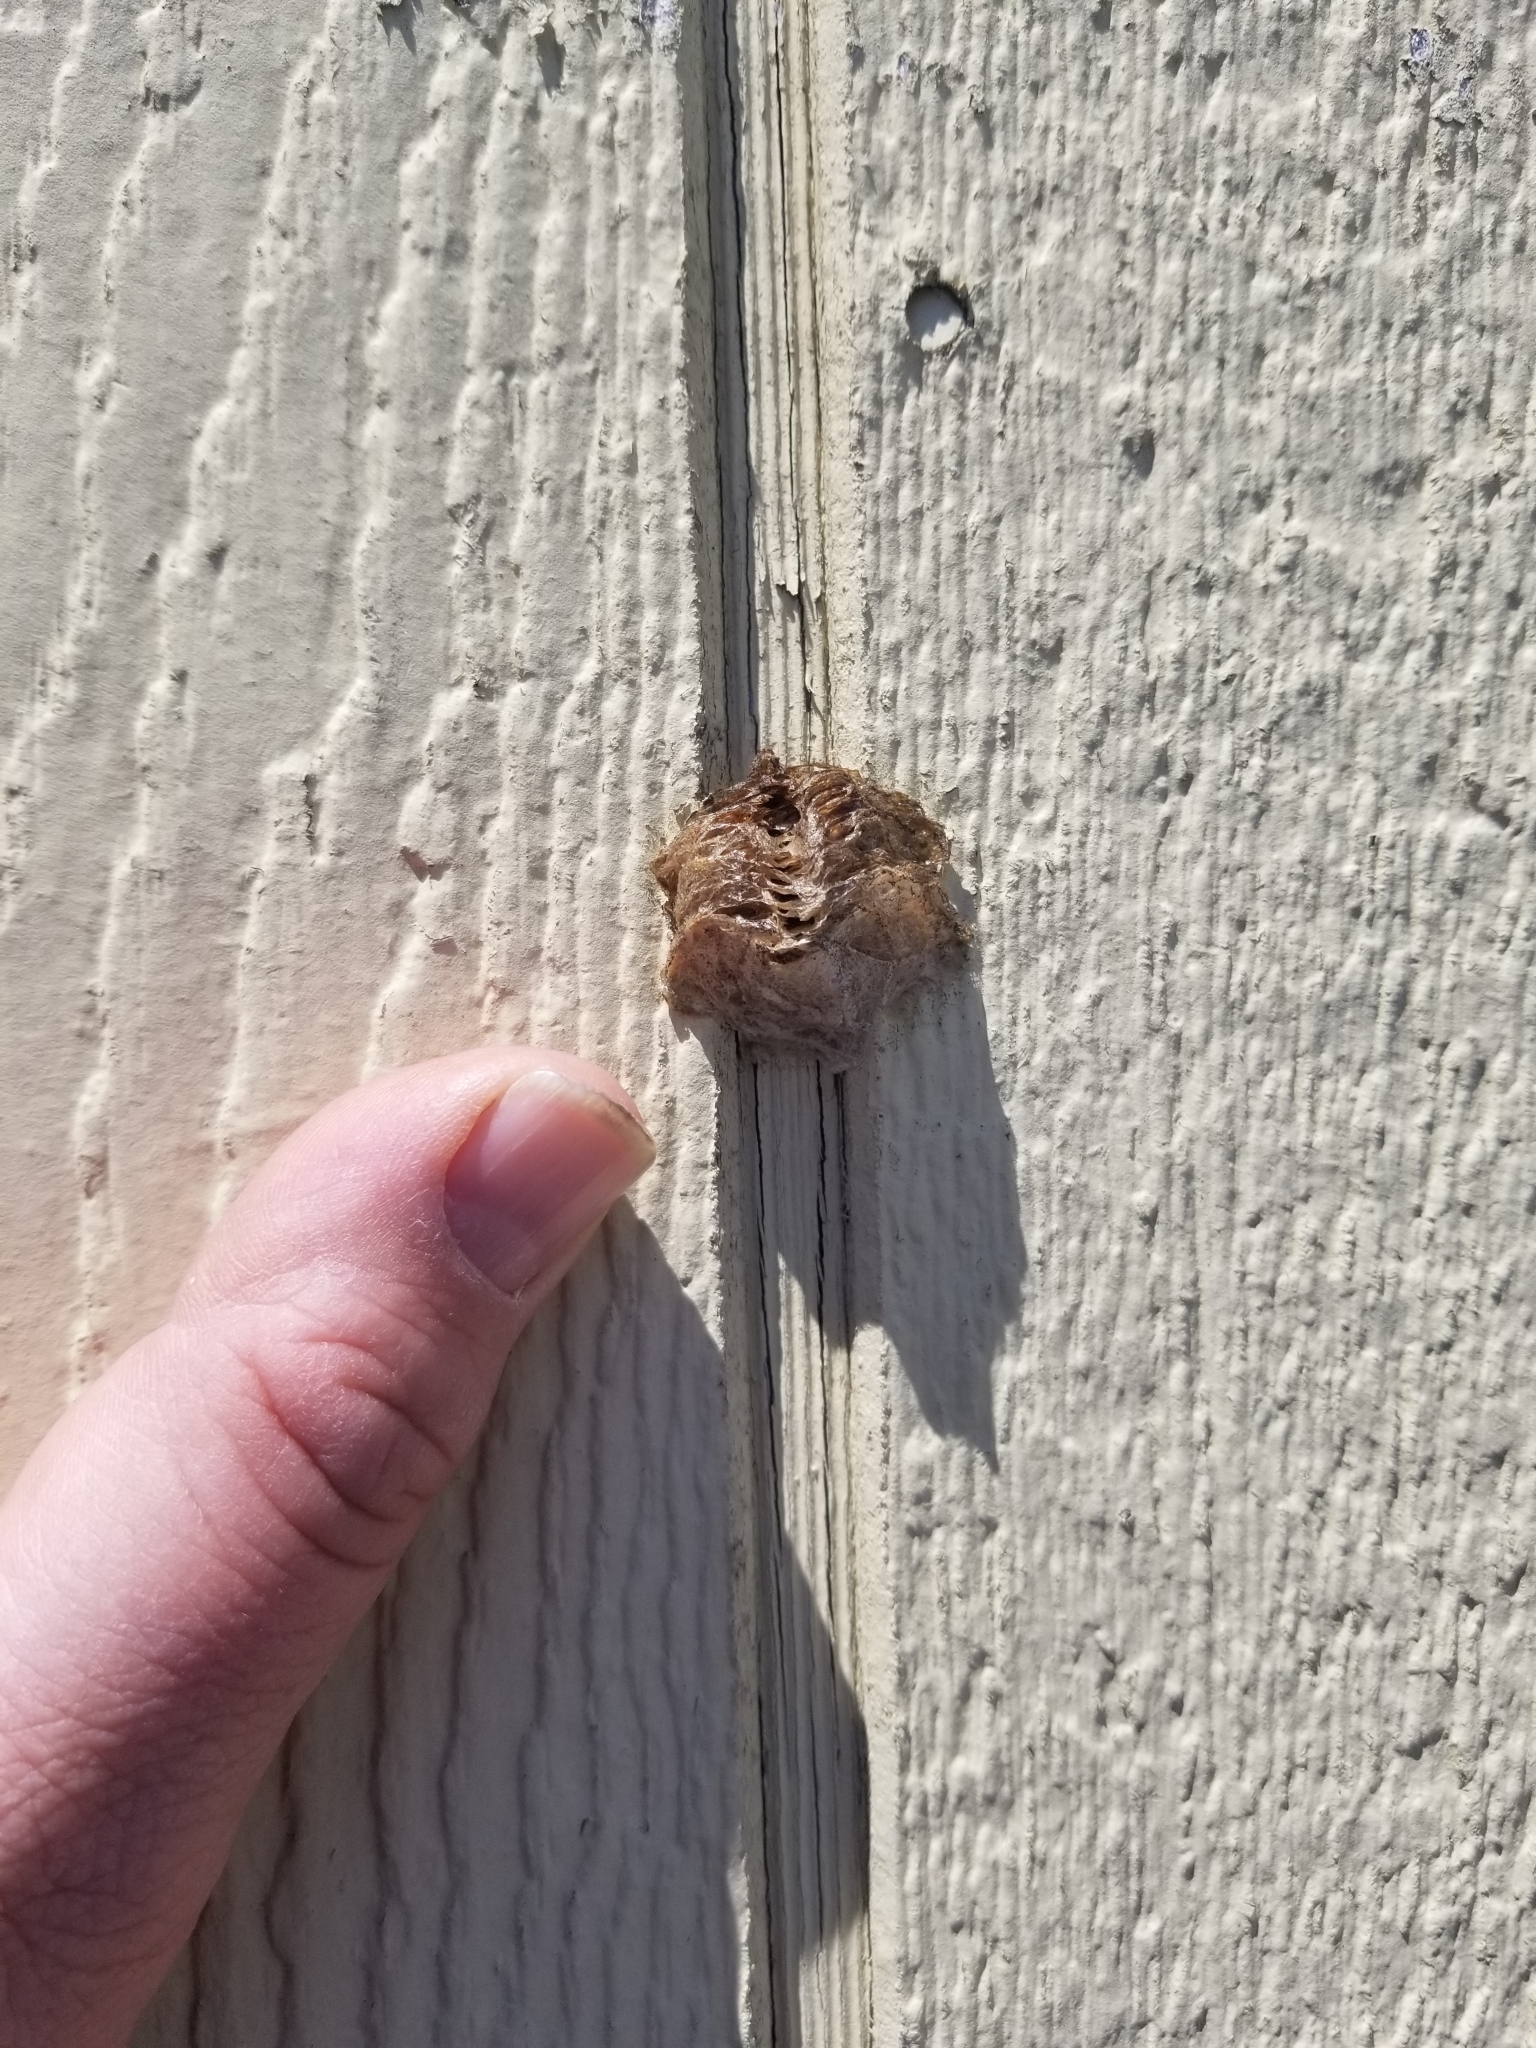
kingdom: Animalia
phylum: Arthropoda
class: Insecta
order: Mantodea
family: Mantidae
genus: Tenodera
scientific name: Tenodera sinensis
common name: Chinese mantis
